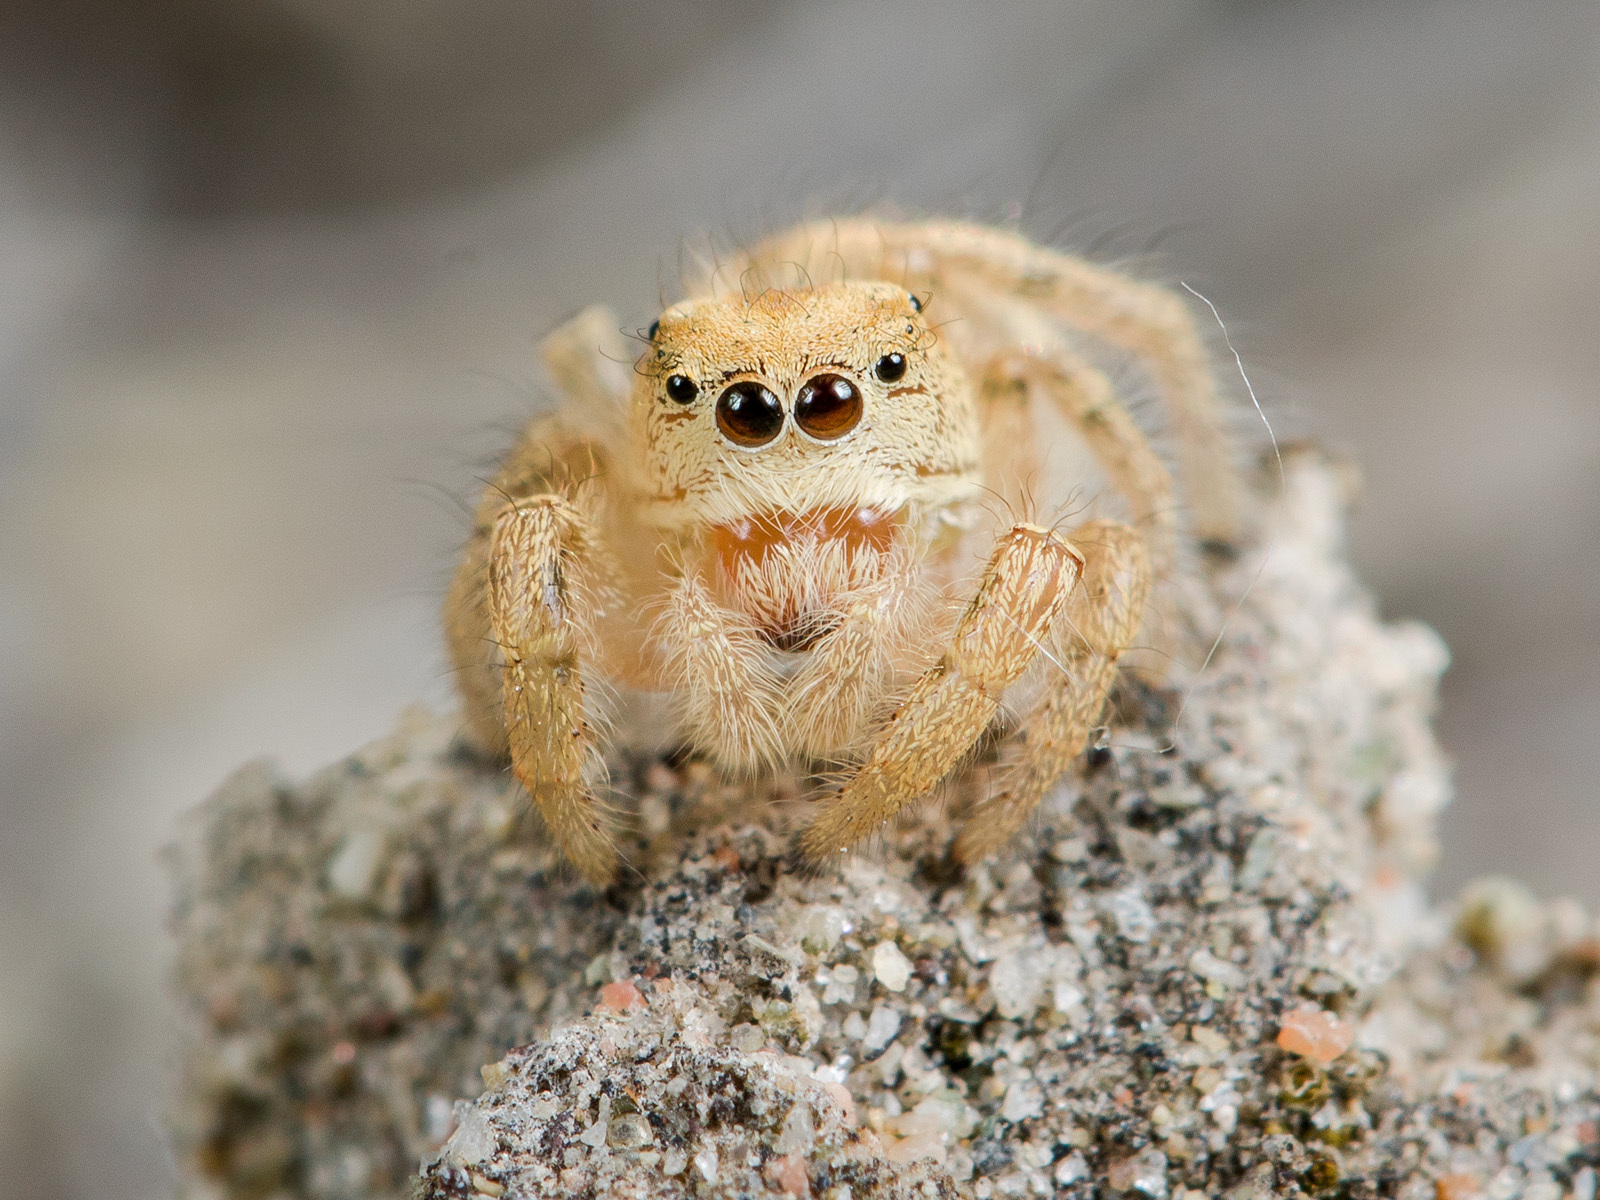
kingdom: Animalia
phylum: Arthropoda
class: Arachnida
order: Araneae
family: Salticidae
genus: Pseudomogrus
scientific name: Pseudomogrus zhilgaensis
